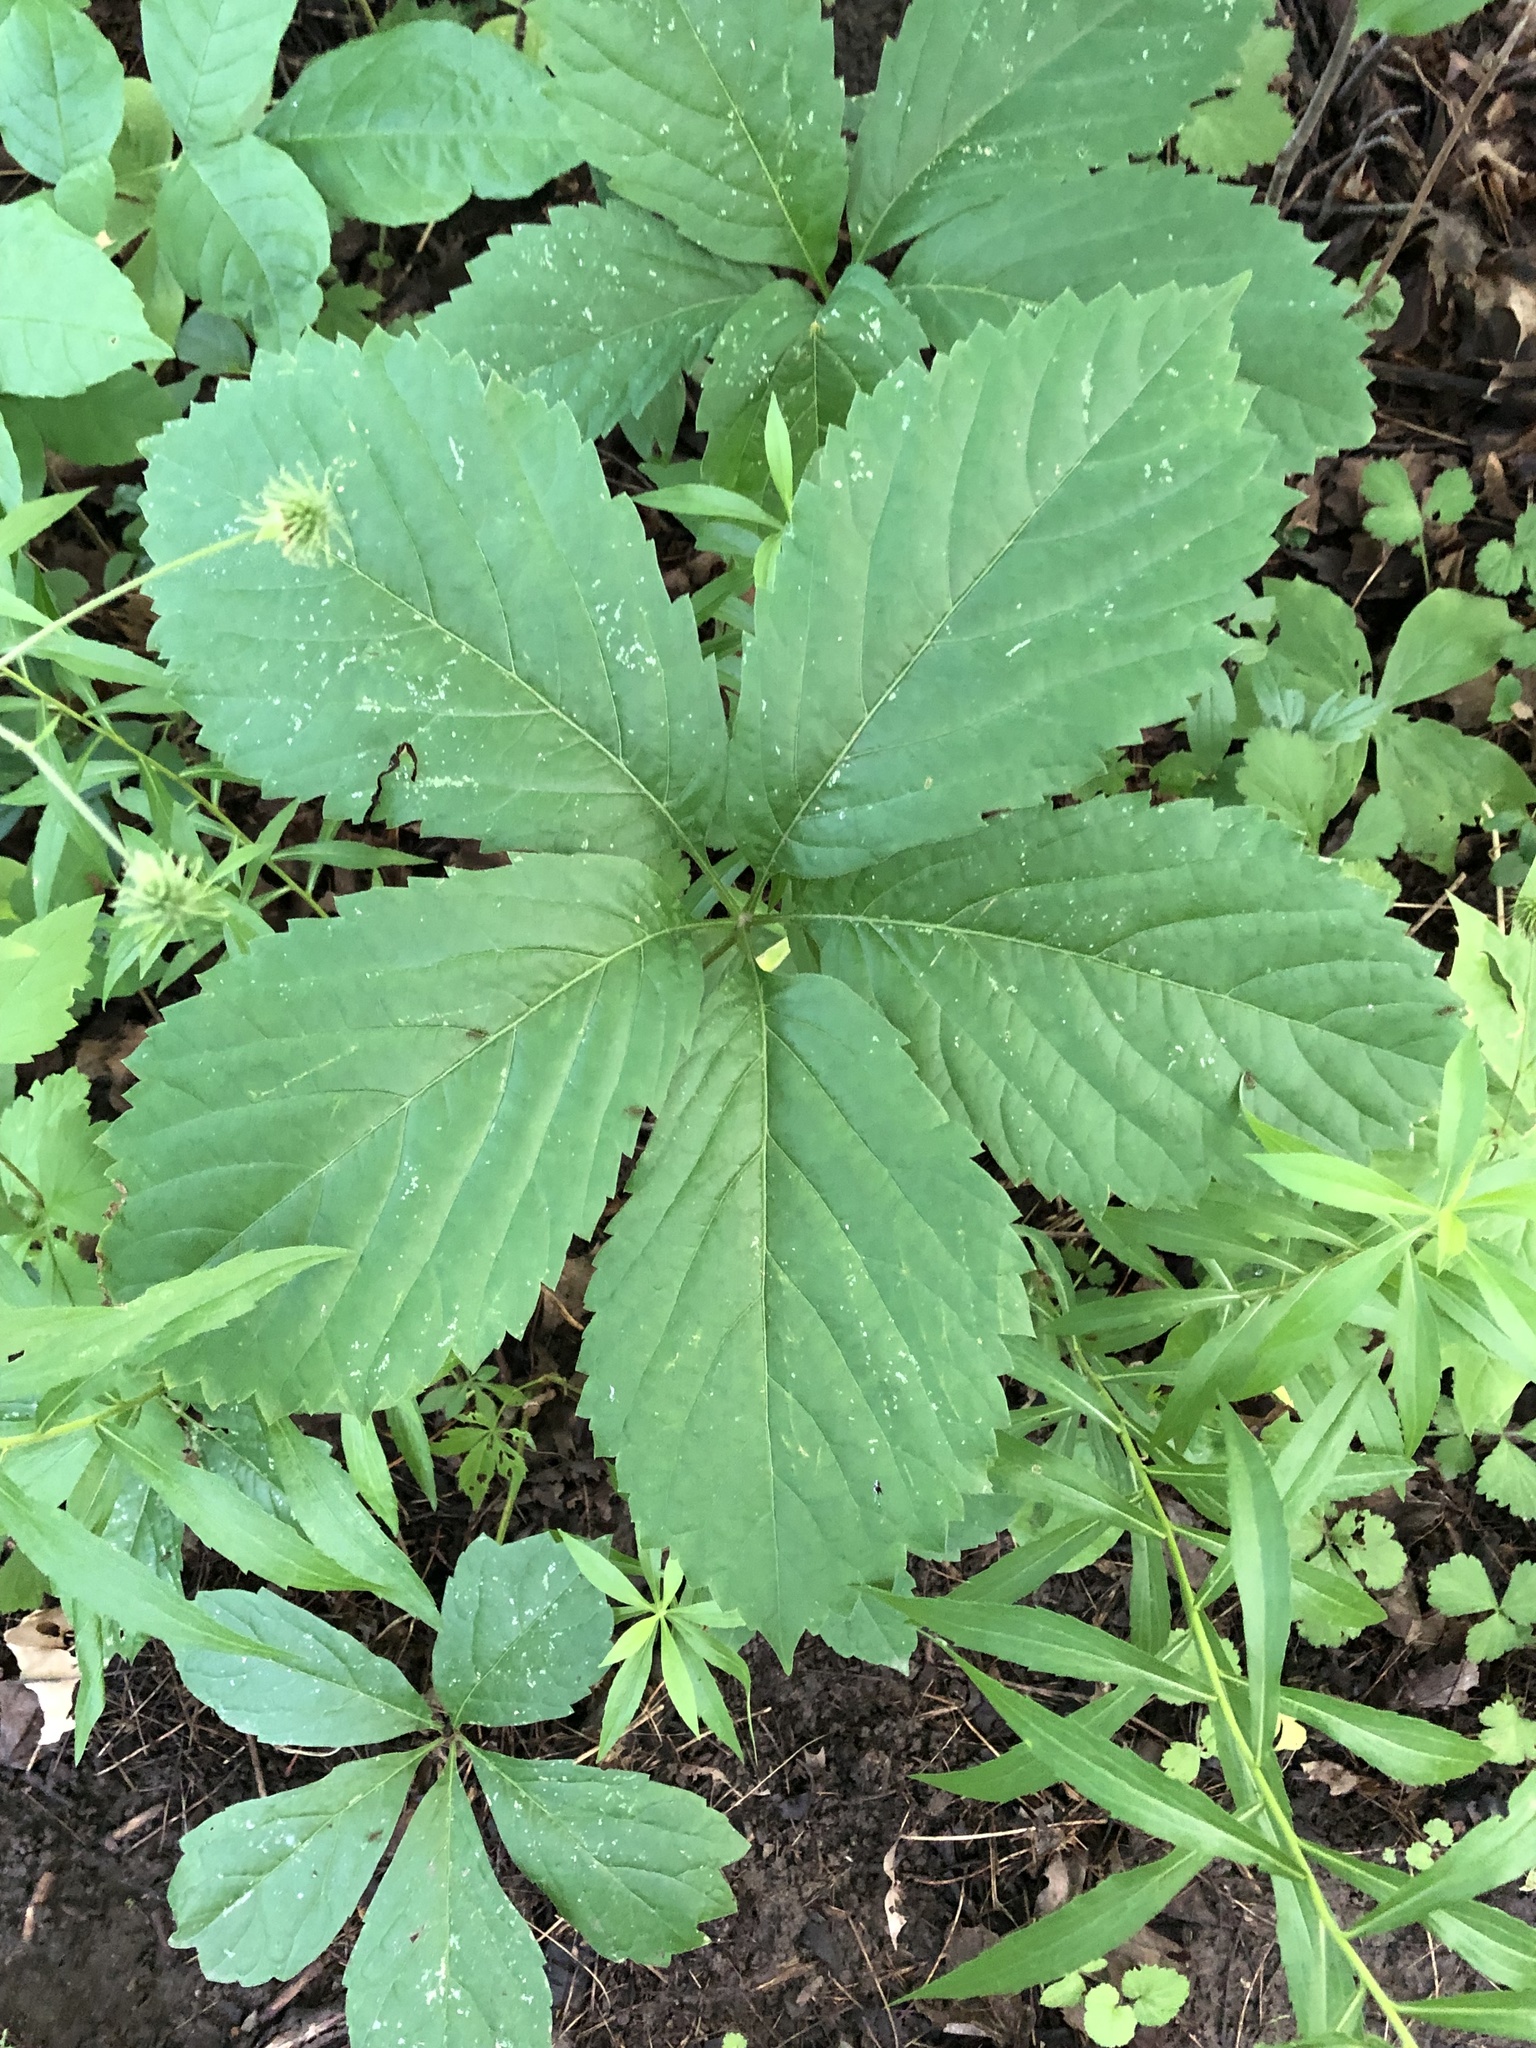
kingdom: Plantae
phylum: Tracheophyta
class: Magnoliopsida
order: Vitales
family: Vitaceae
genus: Parthenocissus
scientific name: Parthenocissus inserta
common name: False virginia-creeper
